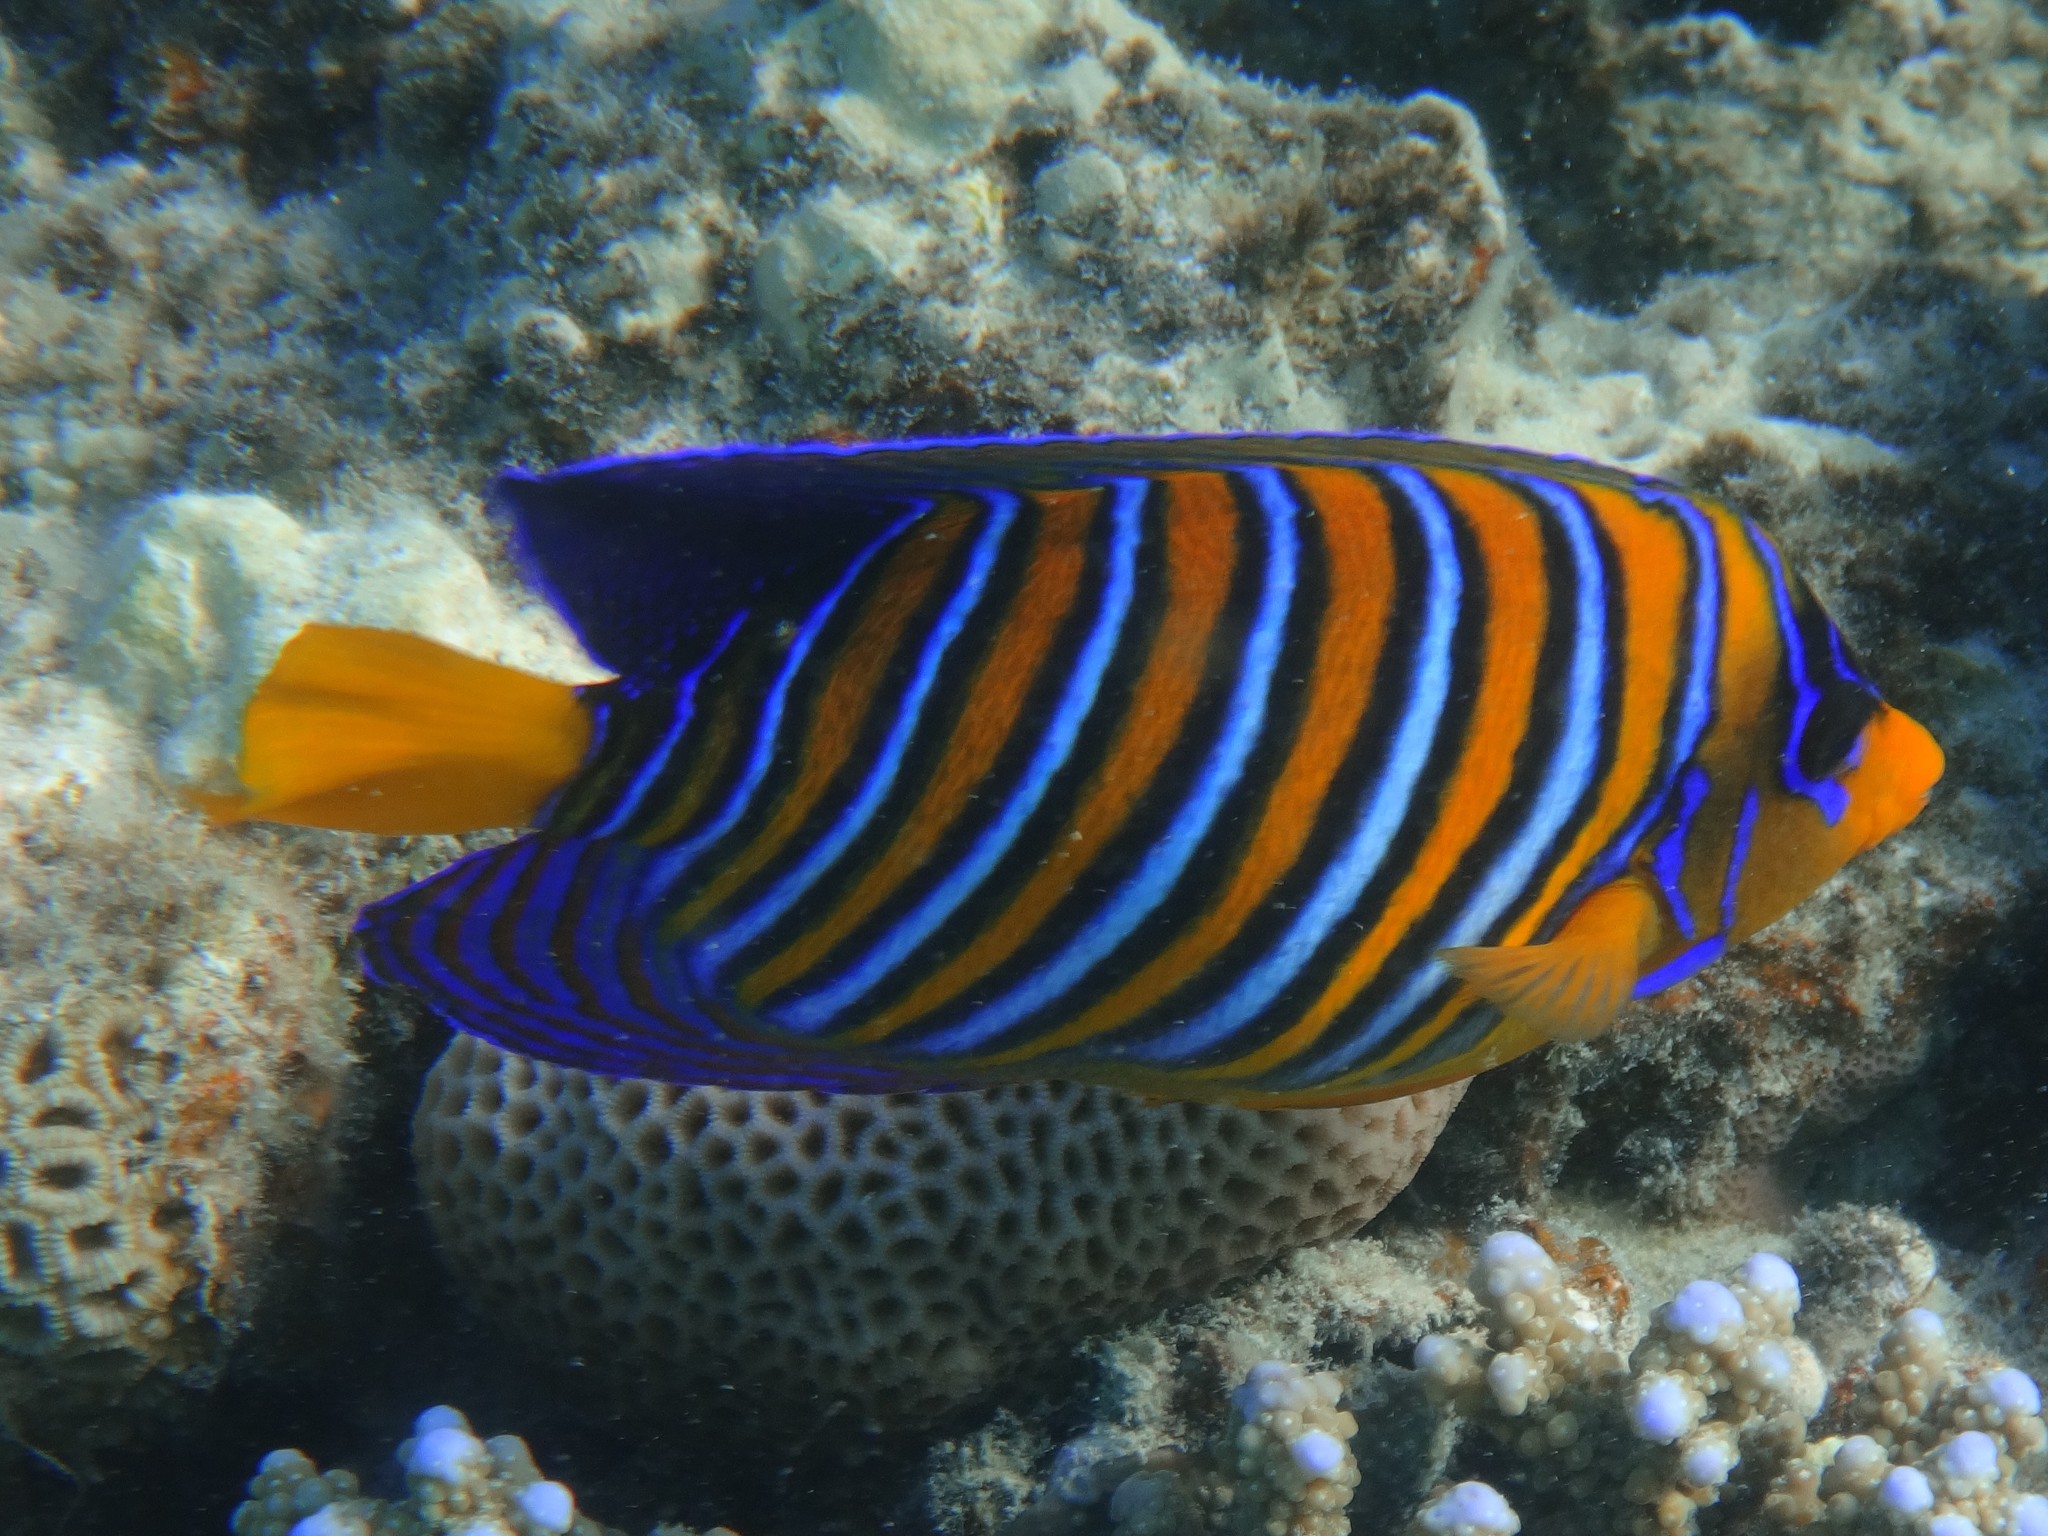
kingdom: Animalia
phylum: Chordata
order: Perciformes
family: Pomacanthidae
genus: Pygoplites
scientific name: Pygoplites diacanthus
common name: Regal angelfish
